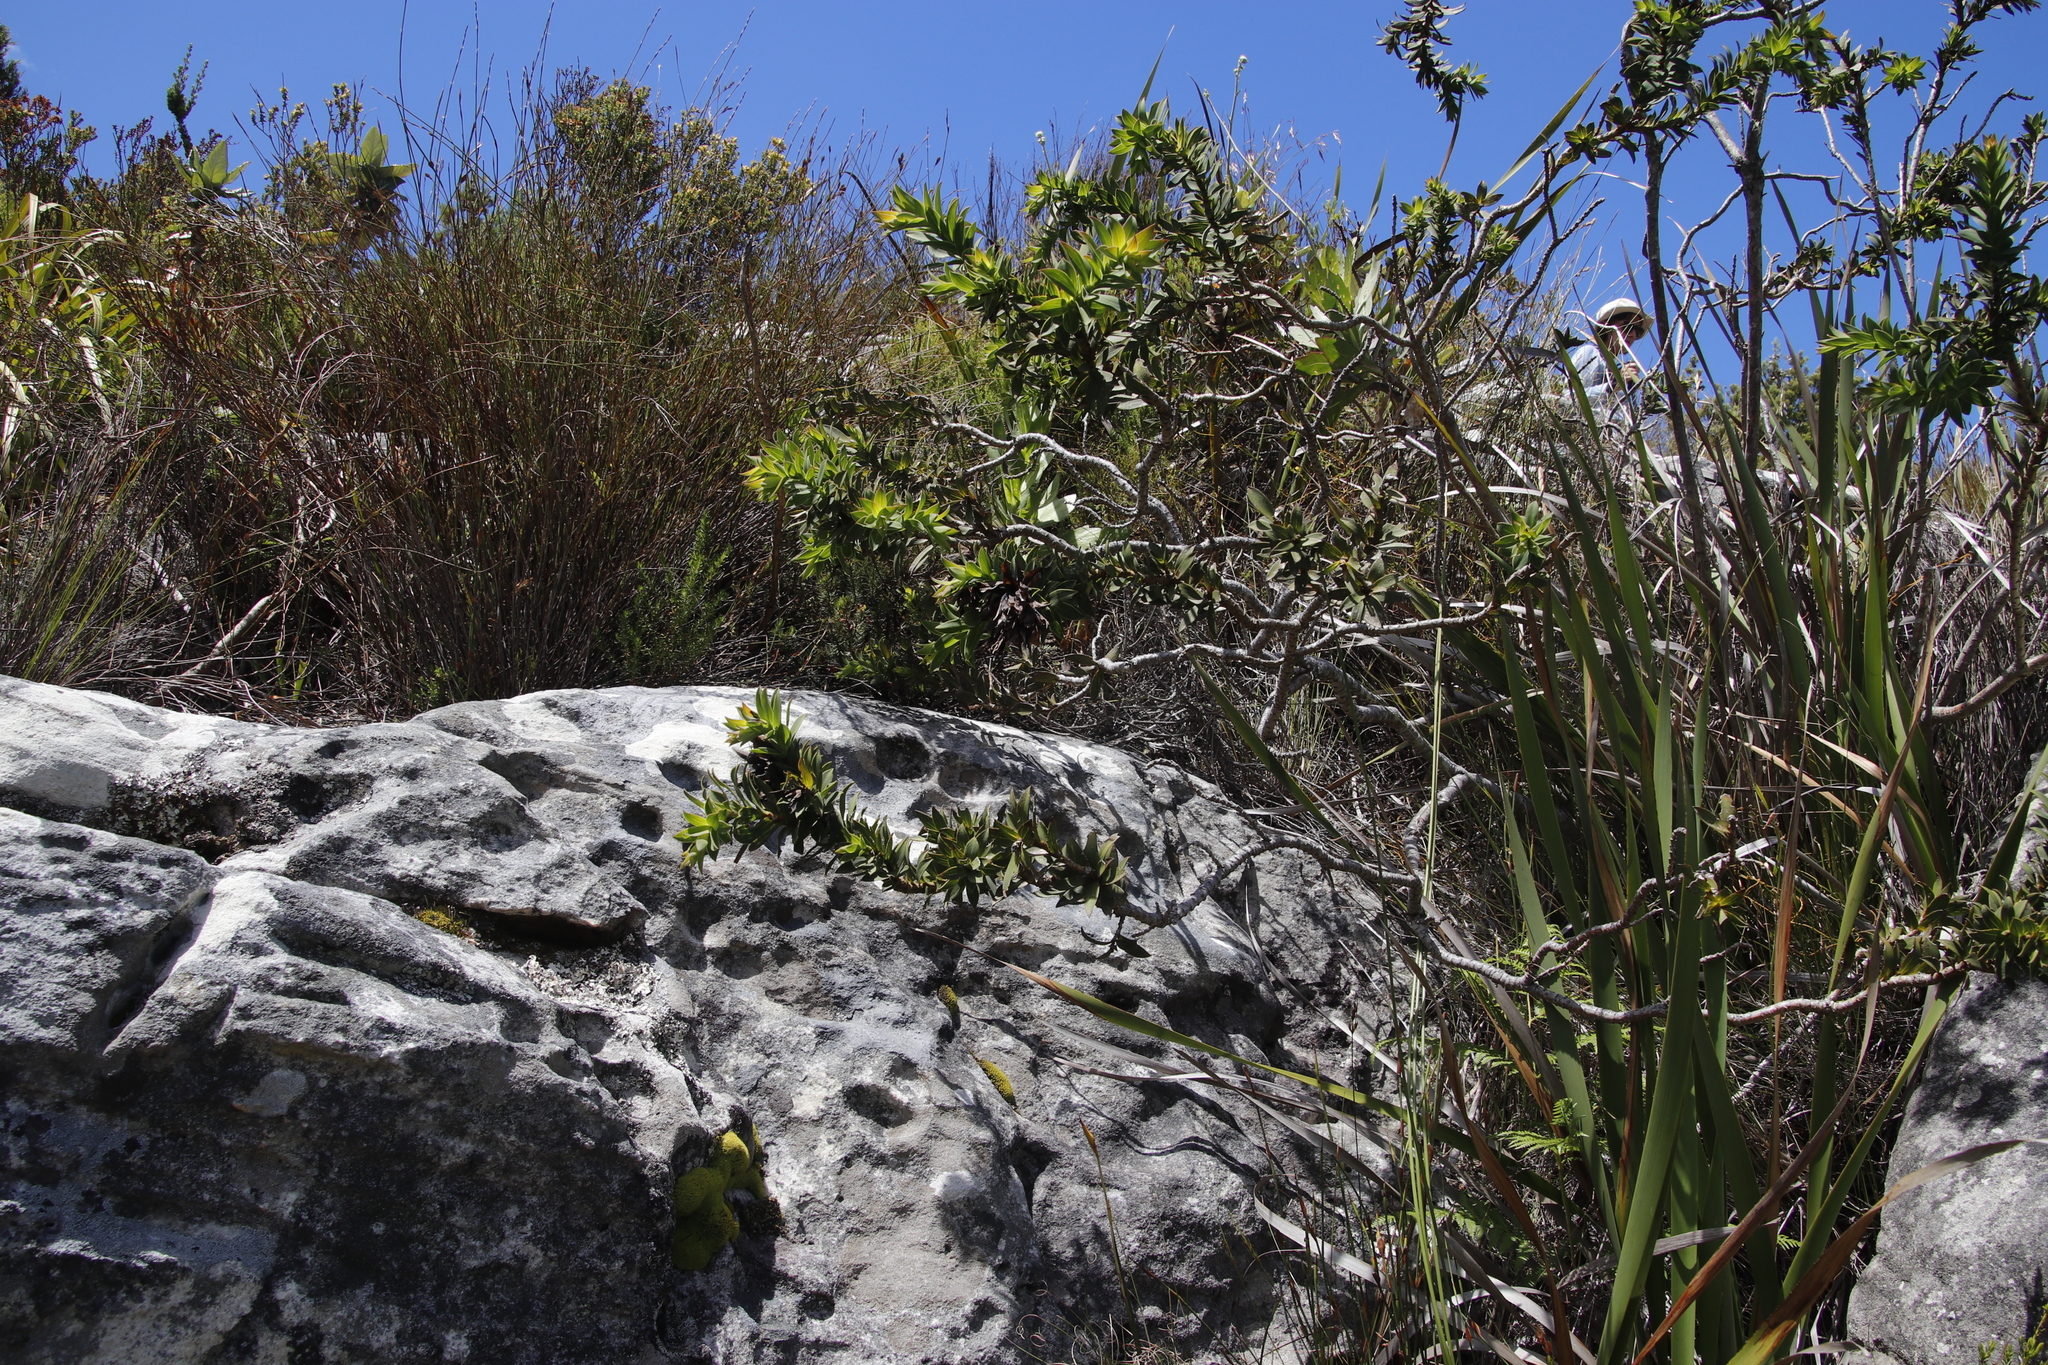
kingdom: Plantae
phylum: Tracheophyta
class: Magnoliopsida
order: Fabales
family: Fabaceae
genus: Liparia
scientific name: Liparia splendens
